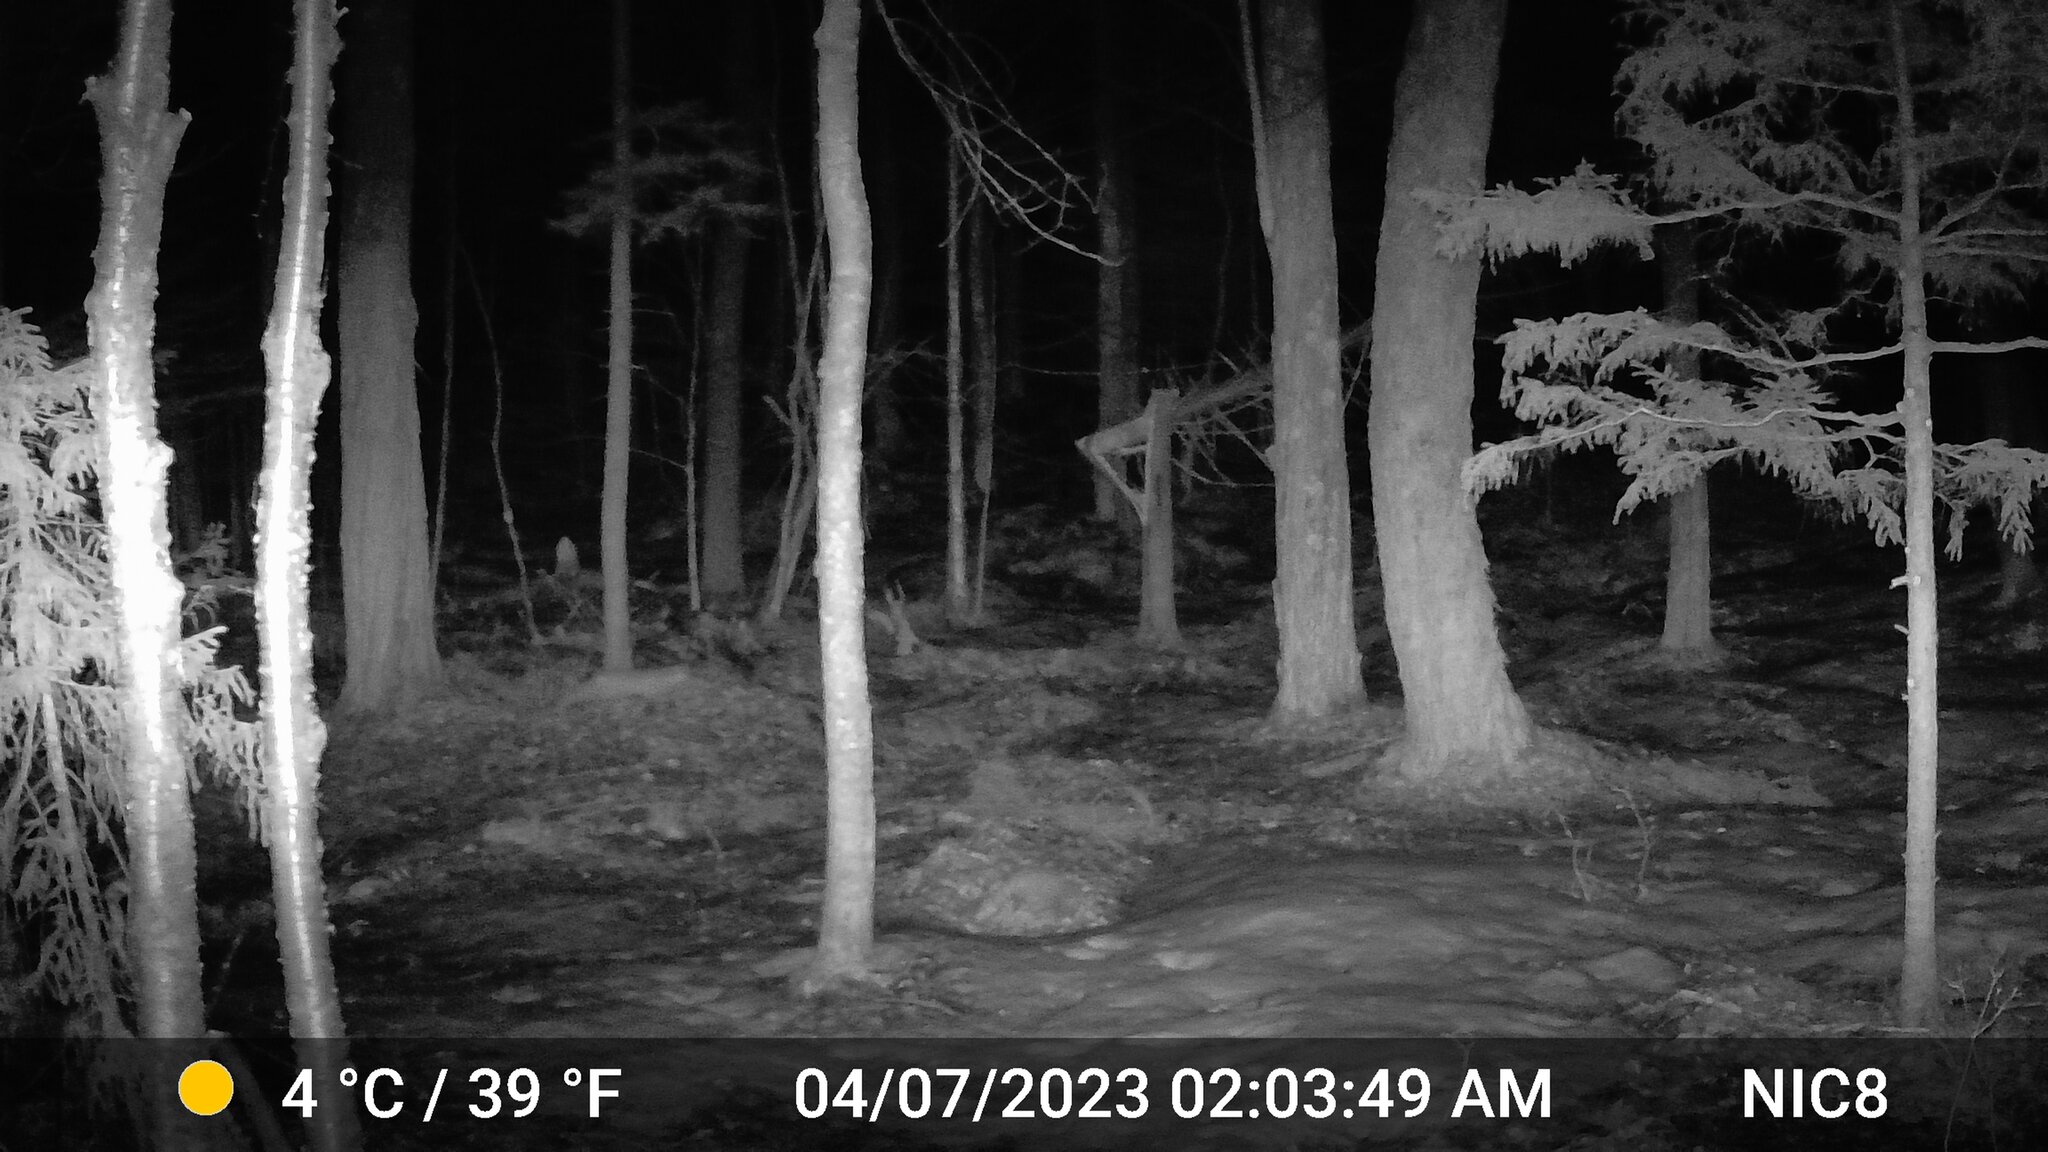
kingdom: Animalia
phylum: Chordata
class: Mammalia
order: Carnivora
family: Canidae
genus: Vulpes
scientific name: Vulpes vulpes
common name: Red fox
